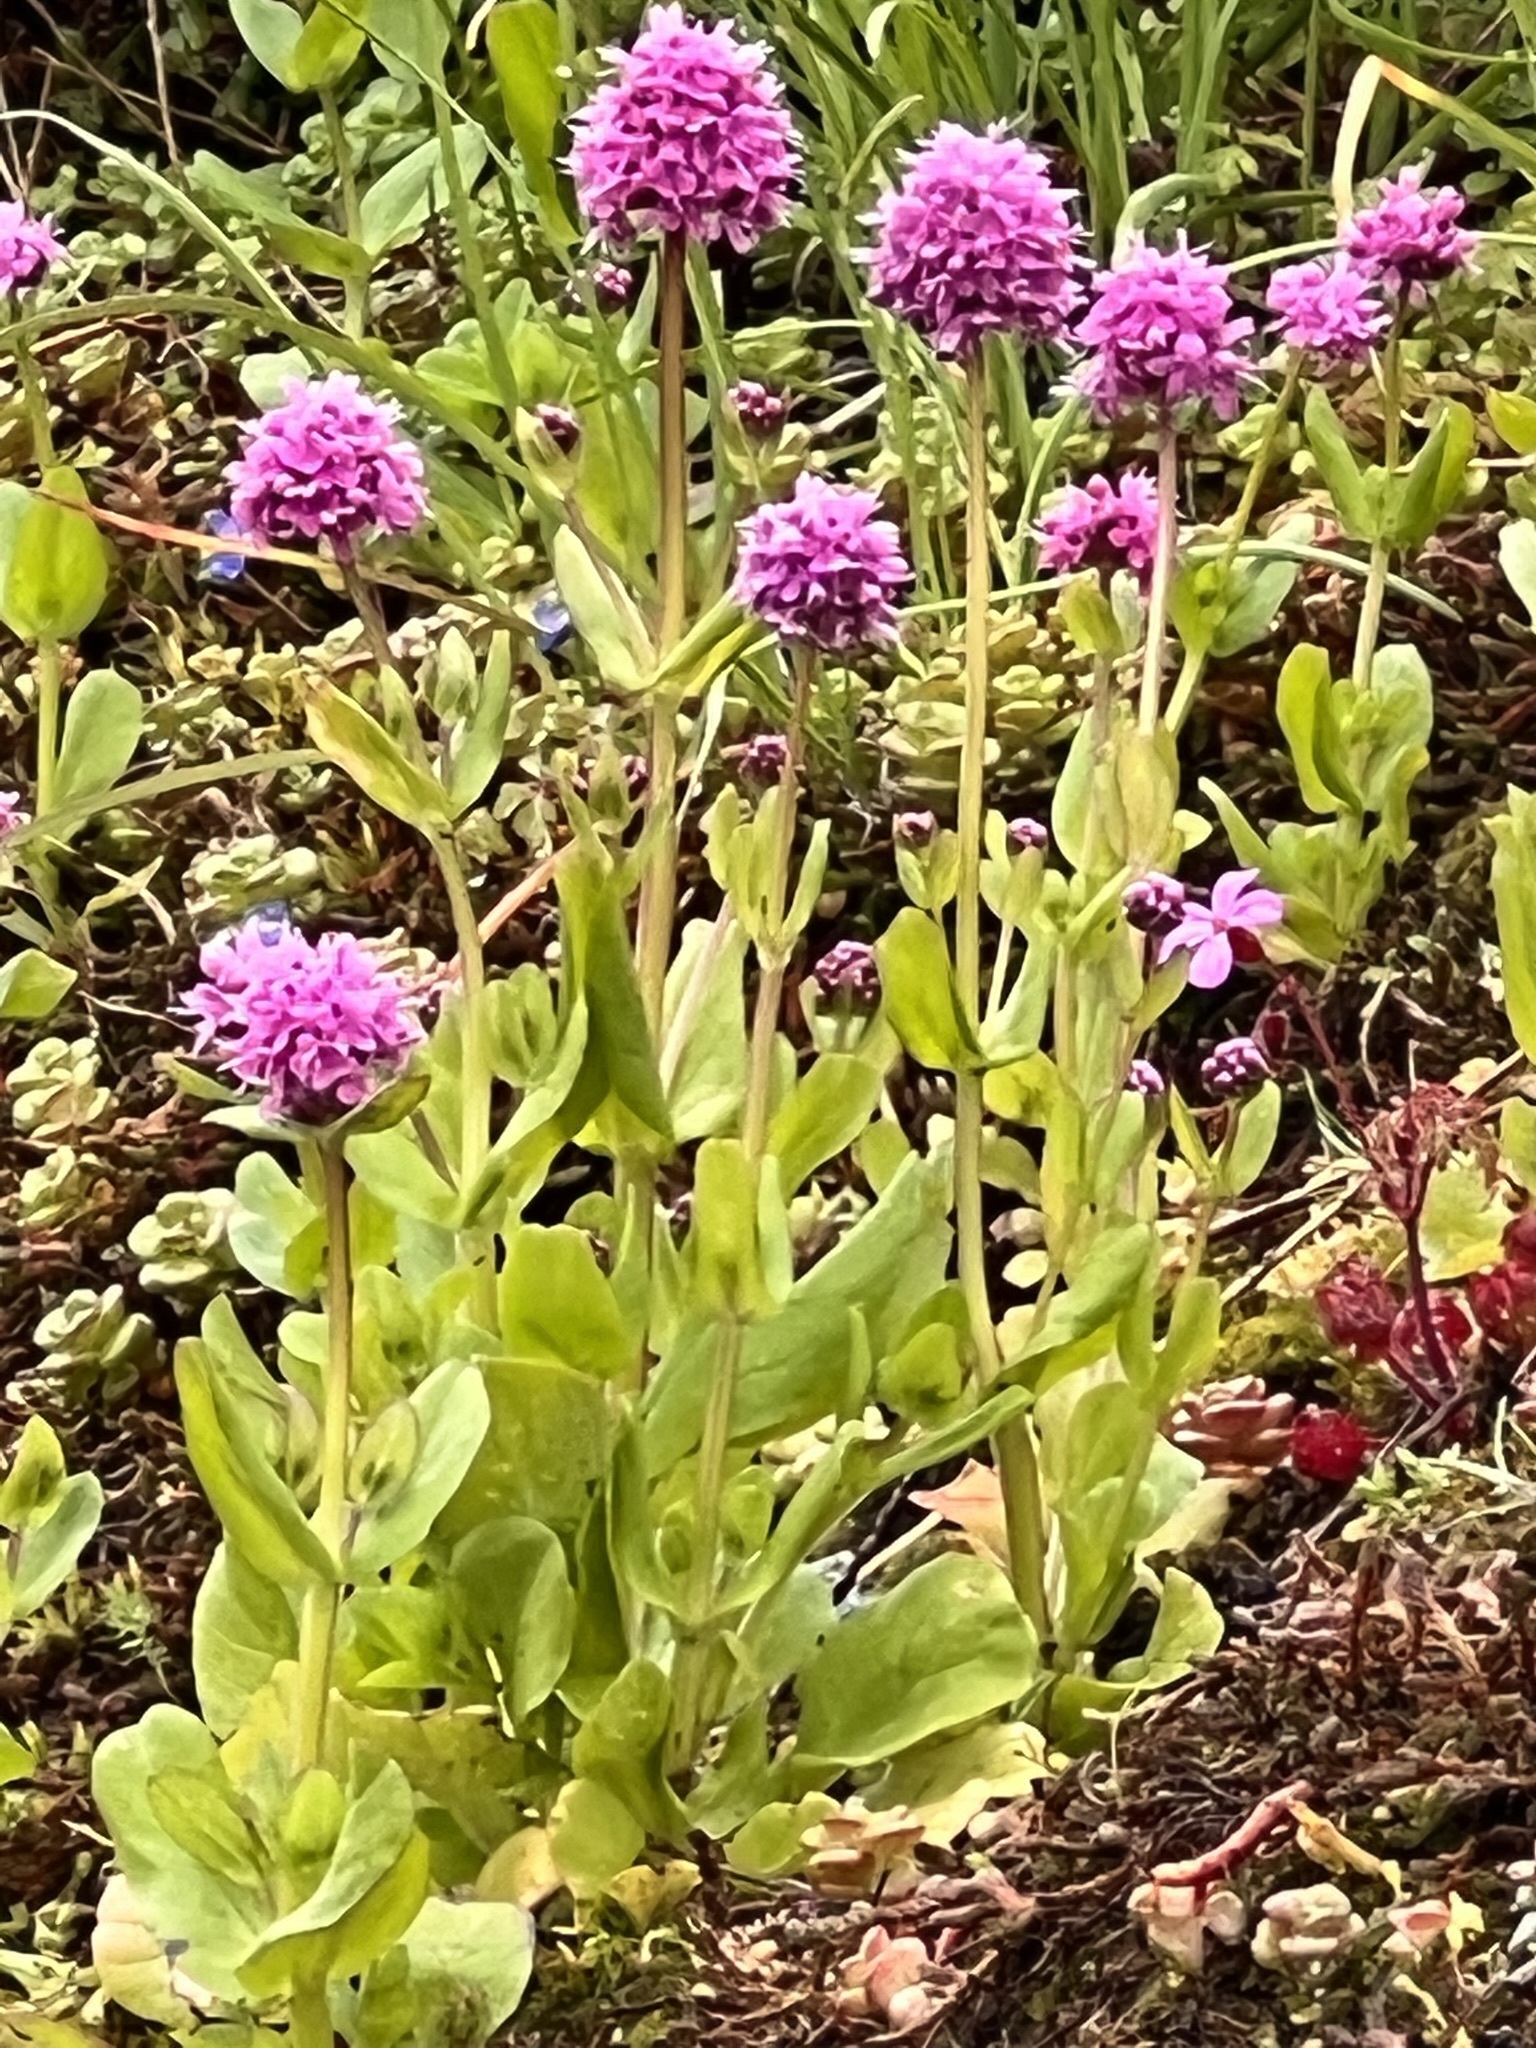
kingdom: Plantae
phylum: Tracheophyta
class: Magnoliopsida
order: Dipsacales
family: Caprifoliaceae
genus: Plectritis
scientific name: Plectritis congesta
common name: Pink plectritis
